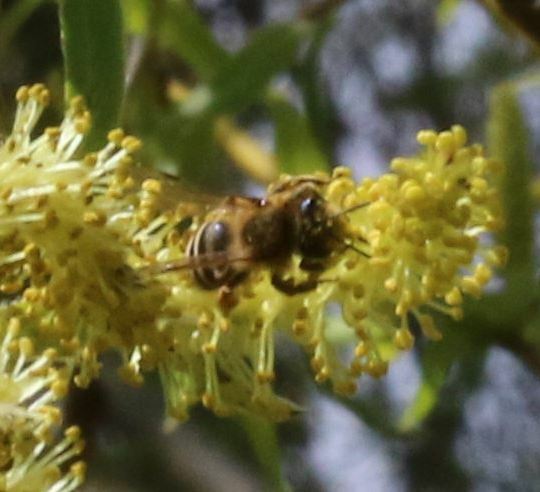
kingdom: Animalia
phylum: Arthropoda
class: Insecta
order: Hymenoptera
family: Andrenidae
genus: Andrena
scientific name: Andrena flavipes
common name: Yellow-legged mining bee
